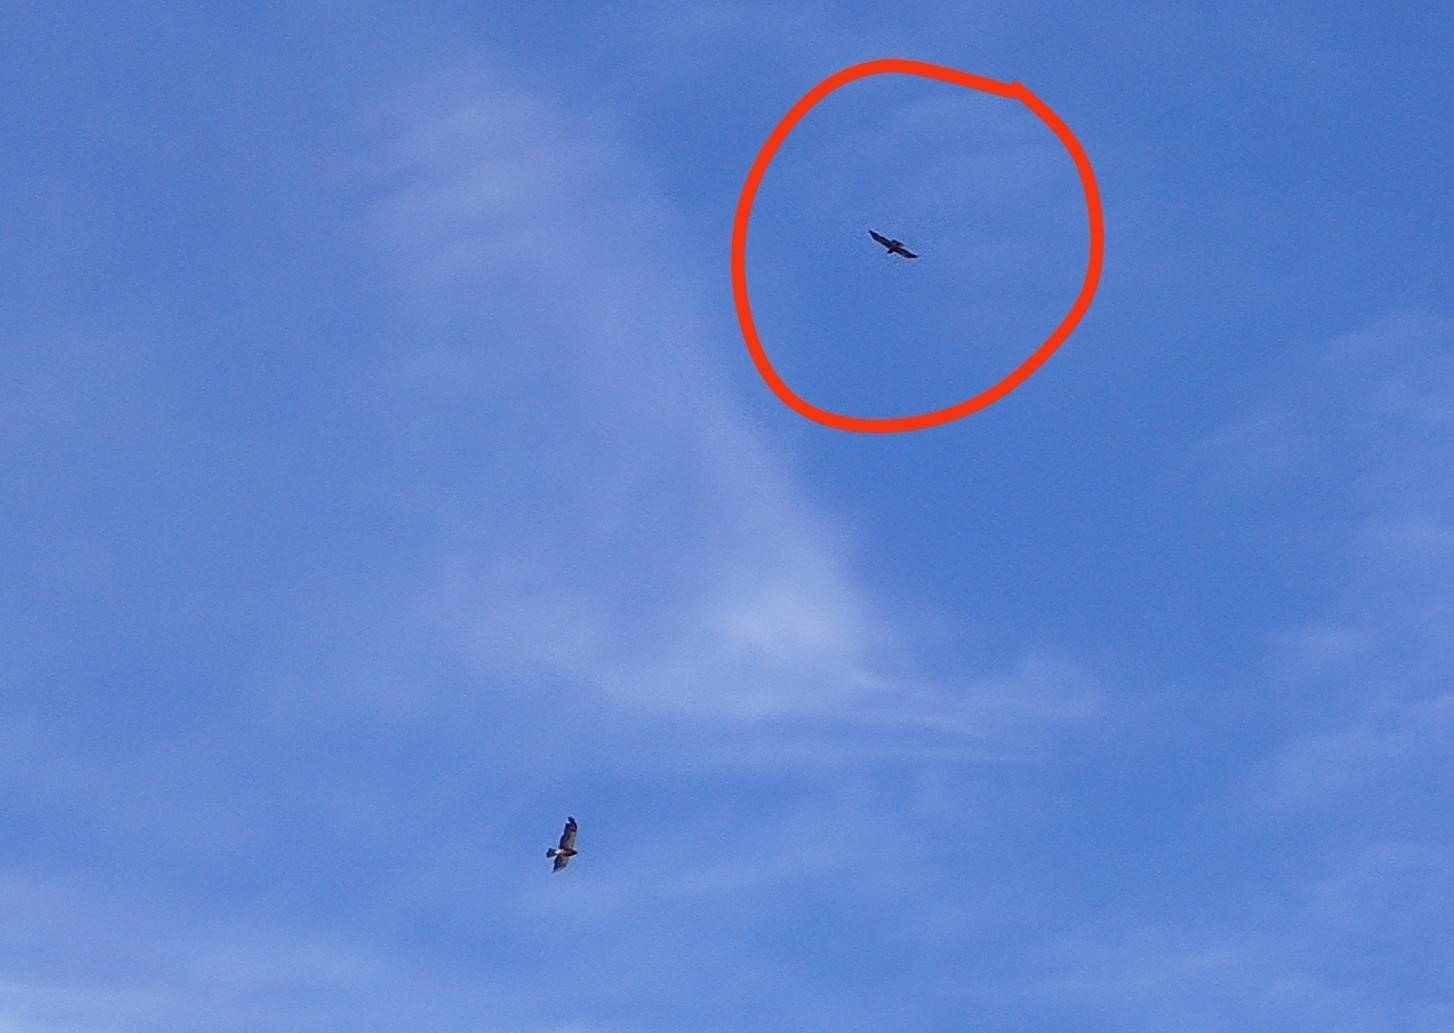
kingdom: Animalia
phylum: Chordata
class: Aves
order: Accipitriformes
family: Accipitridae
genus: Buteo
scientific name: Buteo swainsoni
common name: Swainson's hawk
